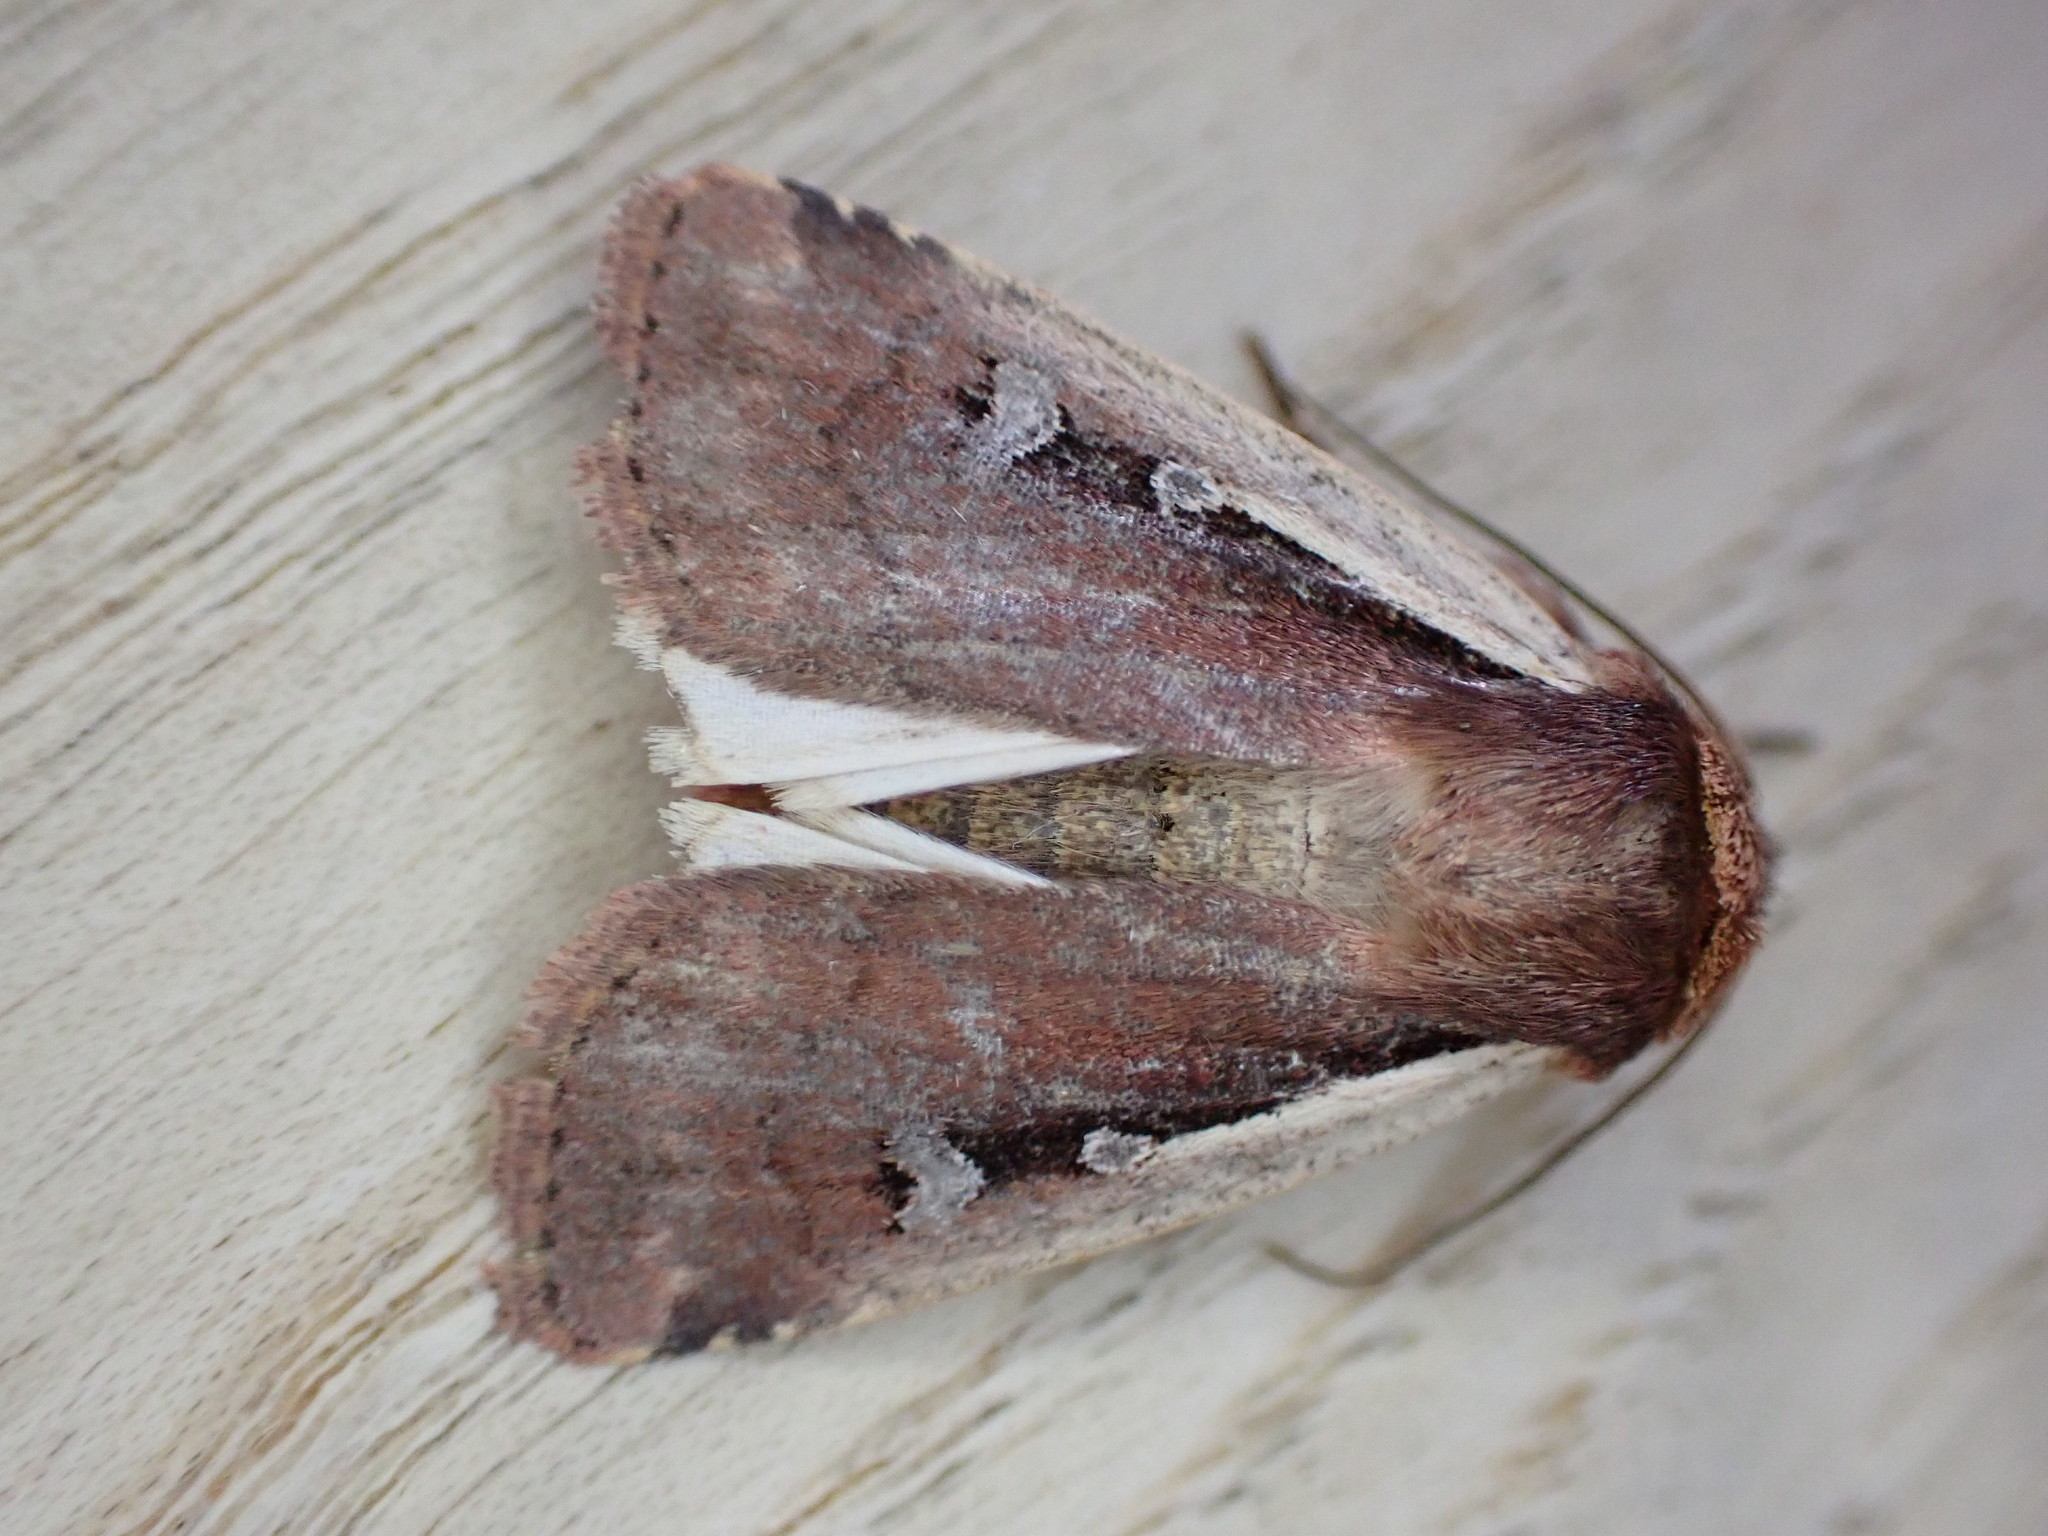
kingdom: Animalia
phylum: Arthropoda
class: Insecta
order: Lepidoptera
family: Noctuidae
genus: Ochropleura
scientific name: Ochropleura plecta
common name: Flame shoulder
